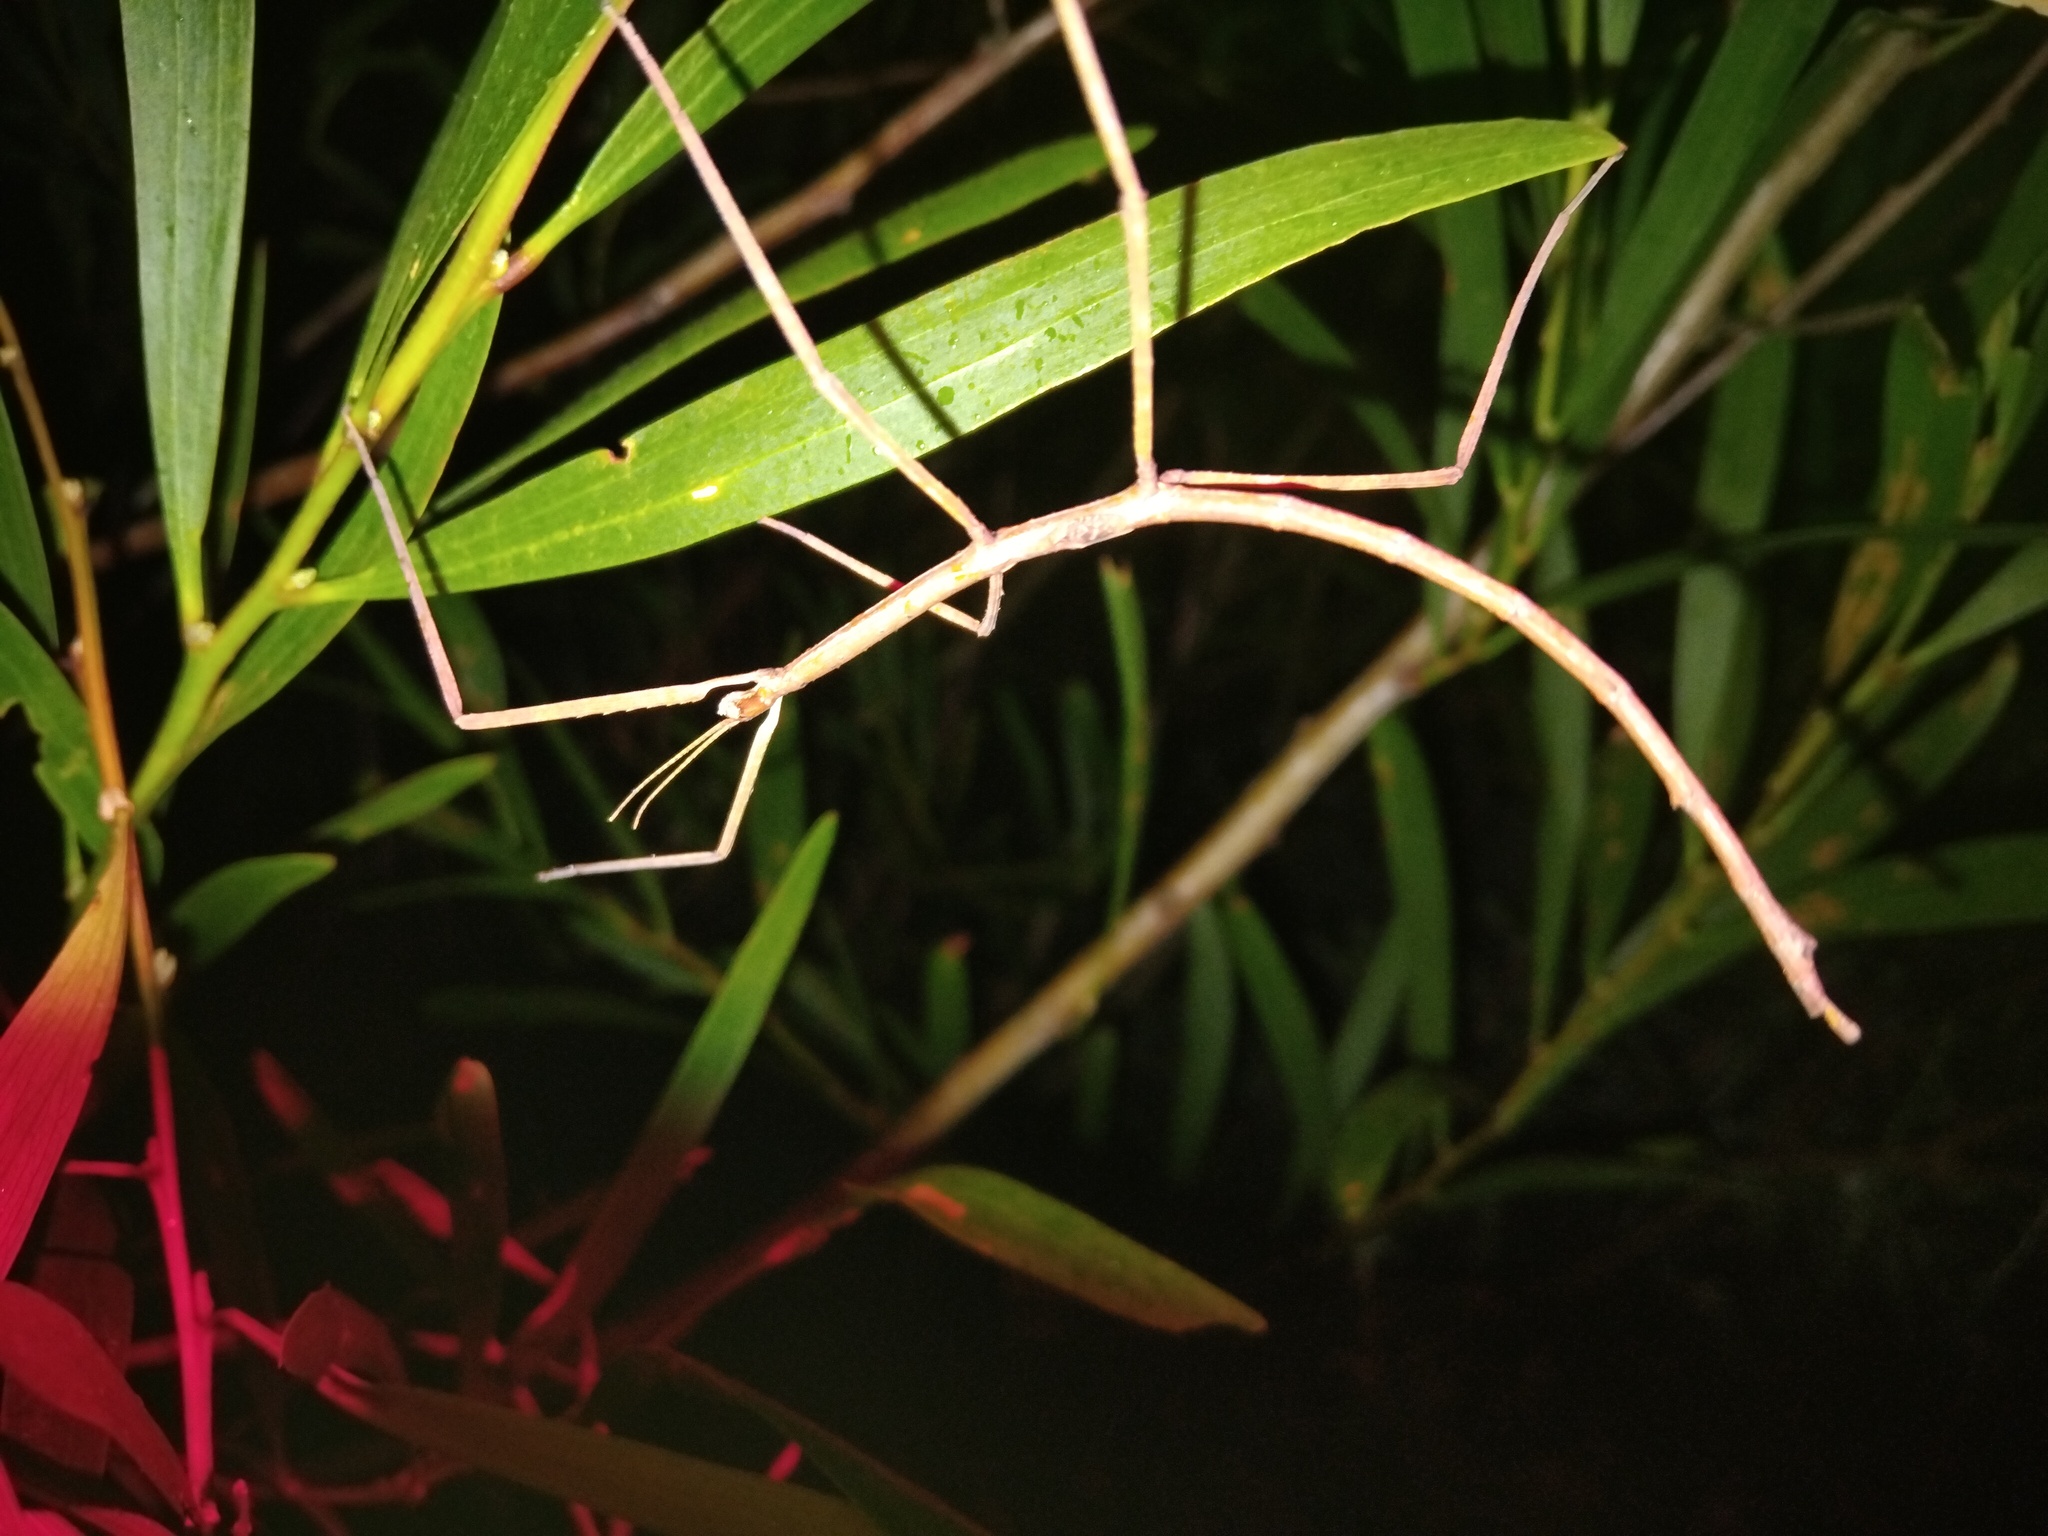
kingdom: Animalia
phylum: Arthropoda
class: Insecta
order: Phasmida
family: Phasmatidae
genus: Ctenomorpha
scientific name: Ctenomorpha marginipennis
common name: Margined-winged stick-insect
